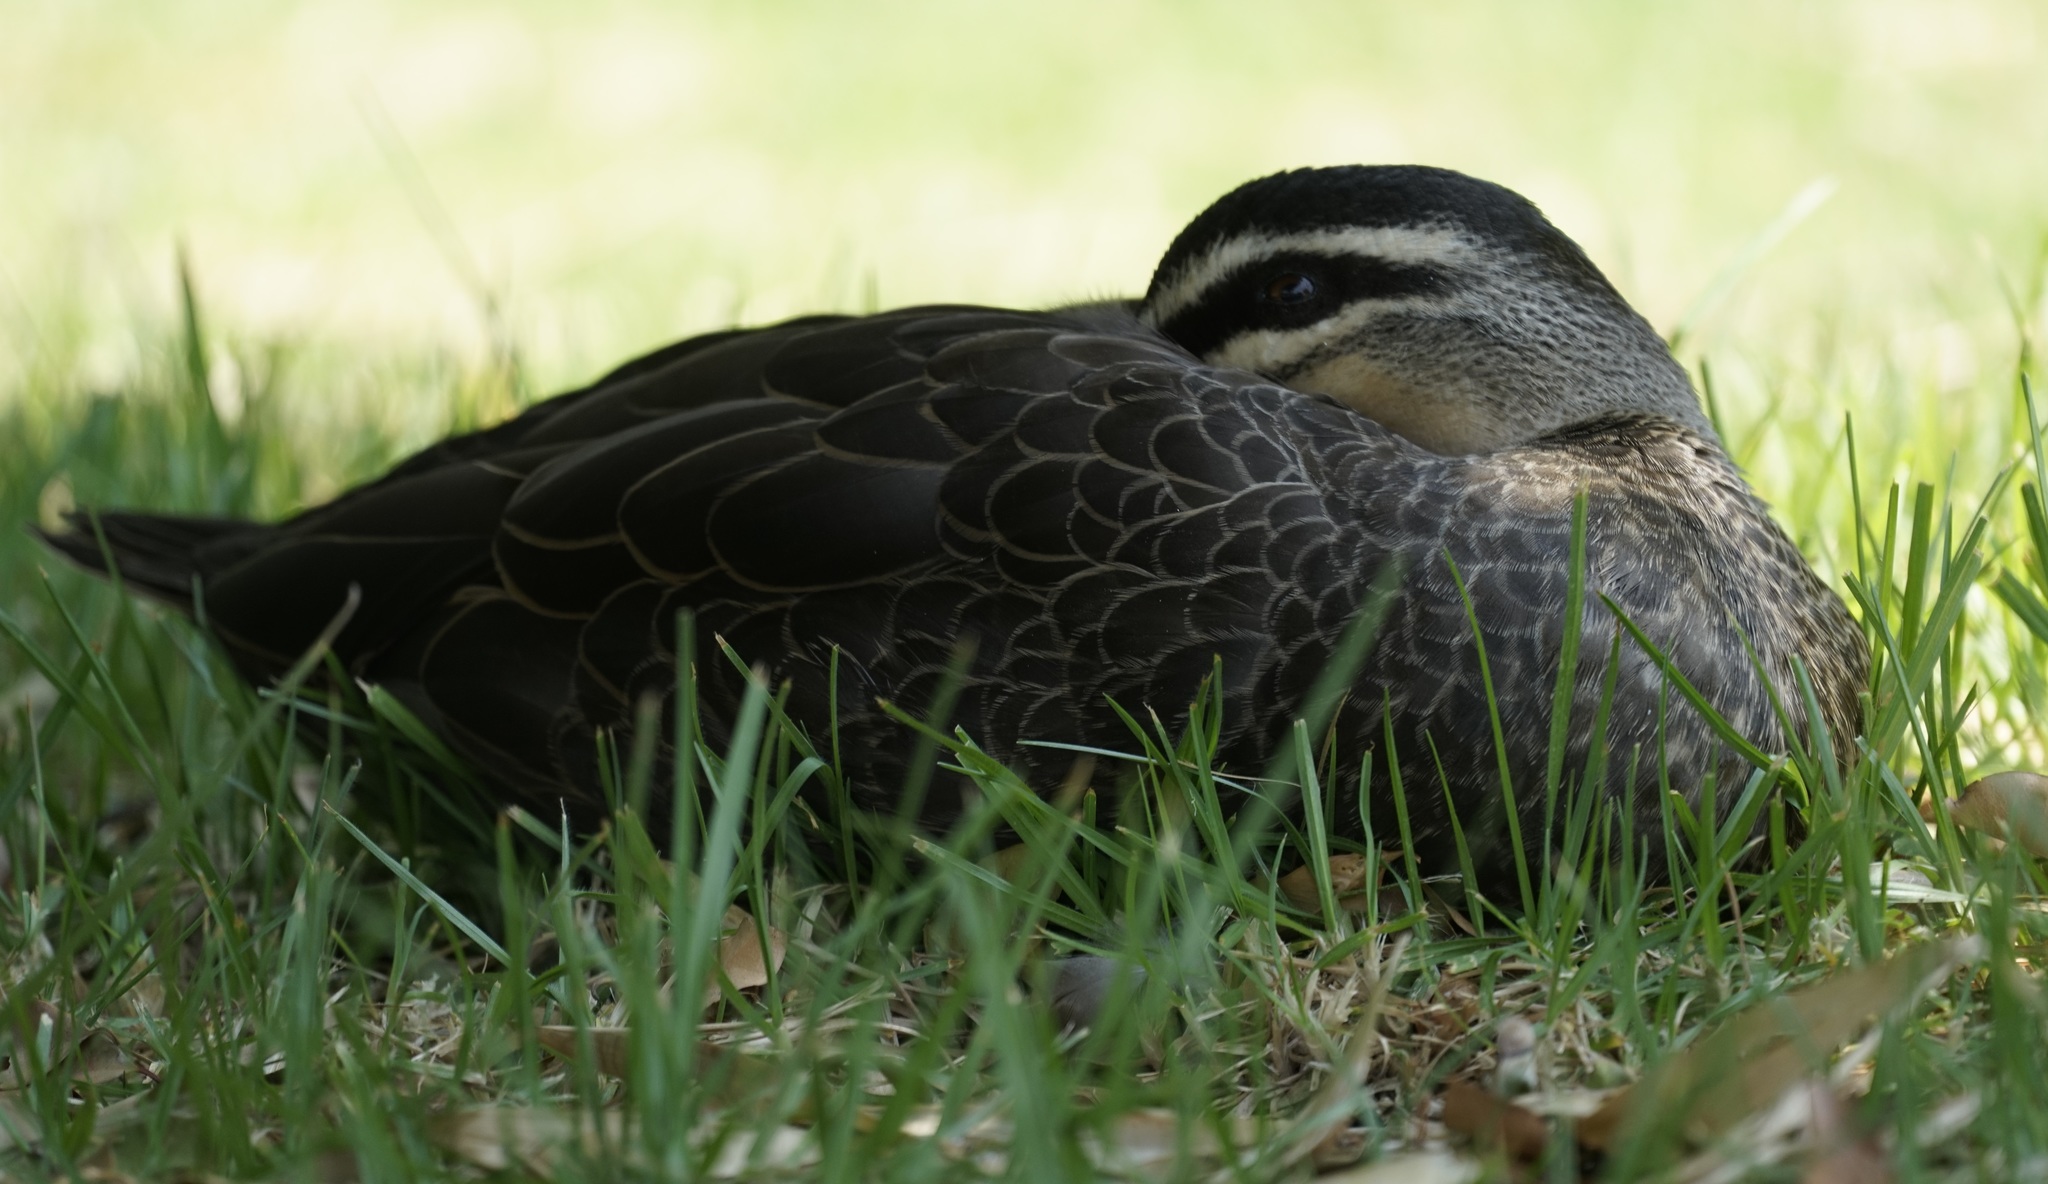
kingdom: Animalia
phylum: Chordata
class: Aves
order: Anseriformes
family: Anatidae
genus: Anas
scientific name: Anas superciliosa
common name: Pacific black duck
